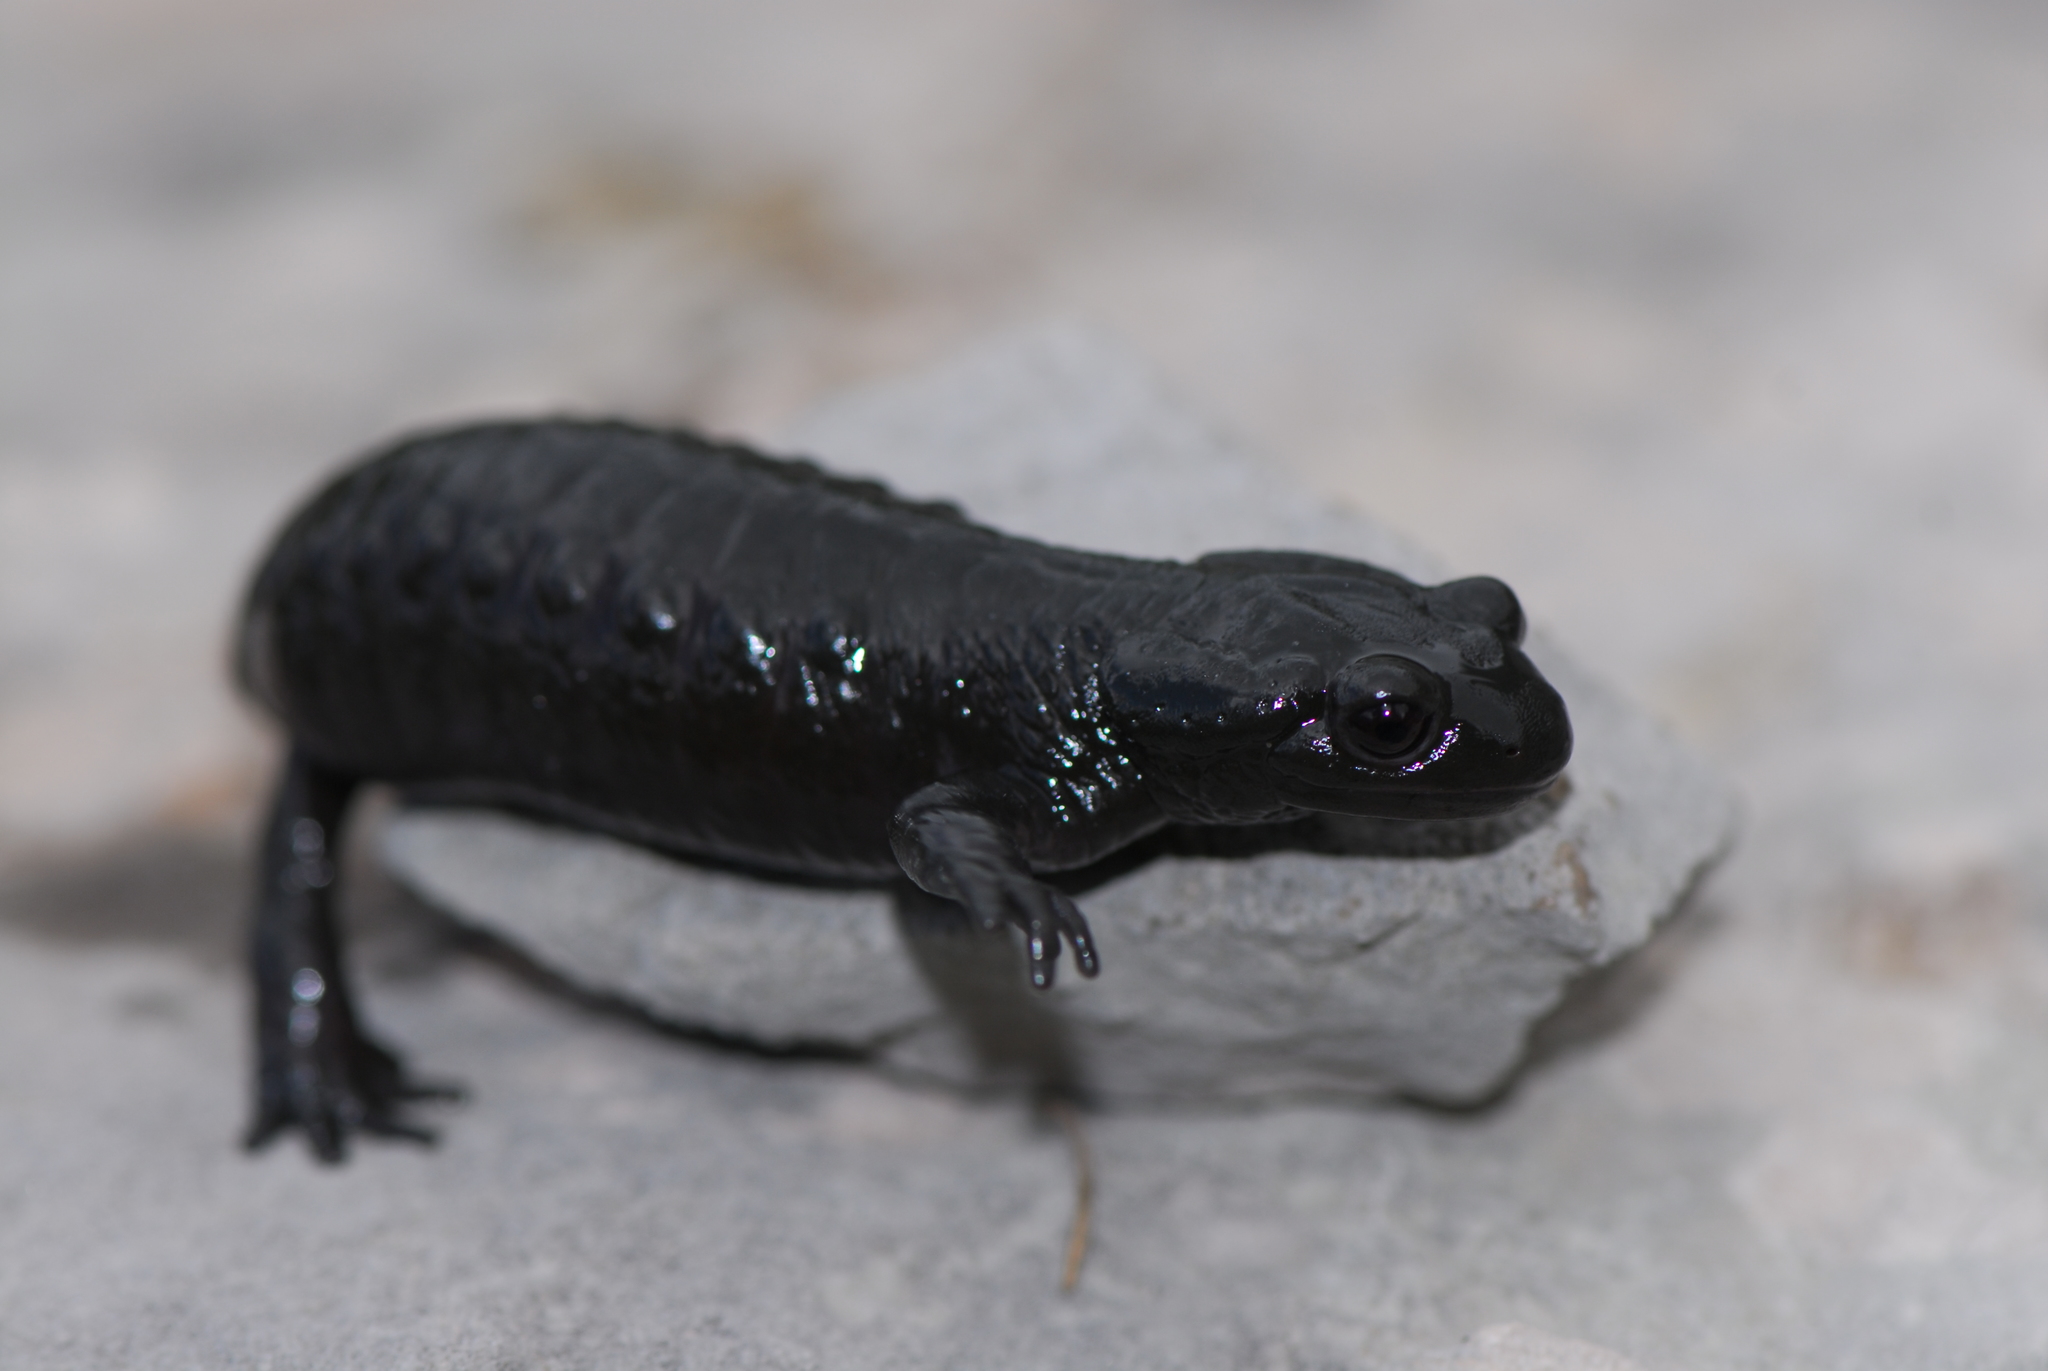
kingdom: Animalia
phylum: Chordata
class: Amphibia
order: Caudata
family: Salamandridae
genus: Salamandra
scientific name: Salamandra atra
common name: Alpine salamander
